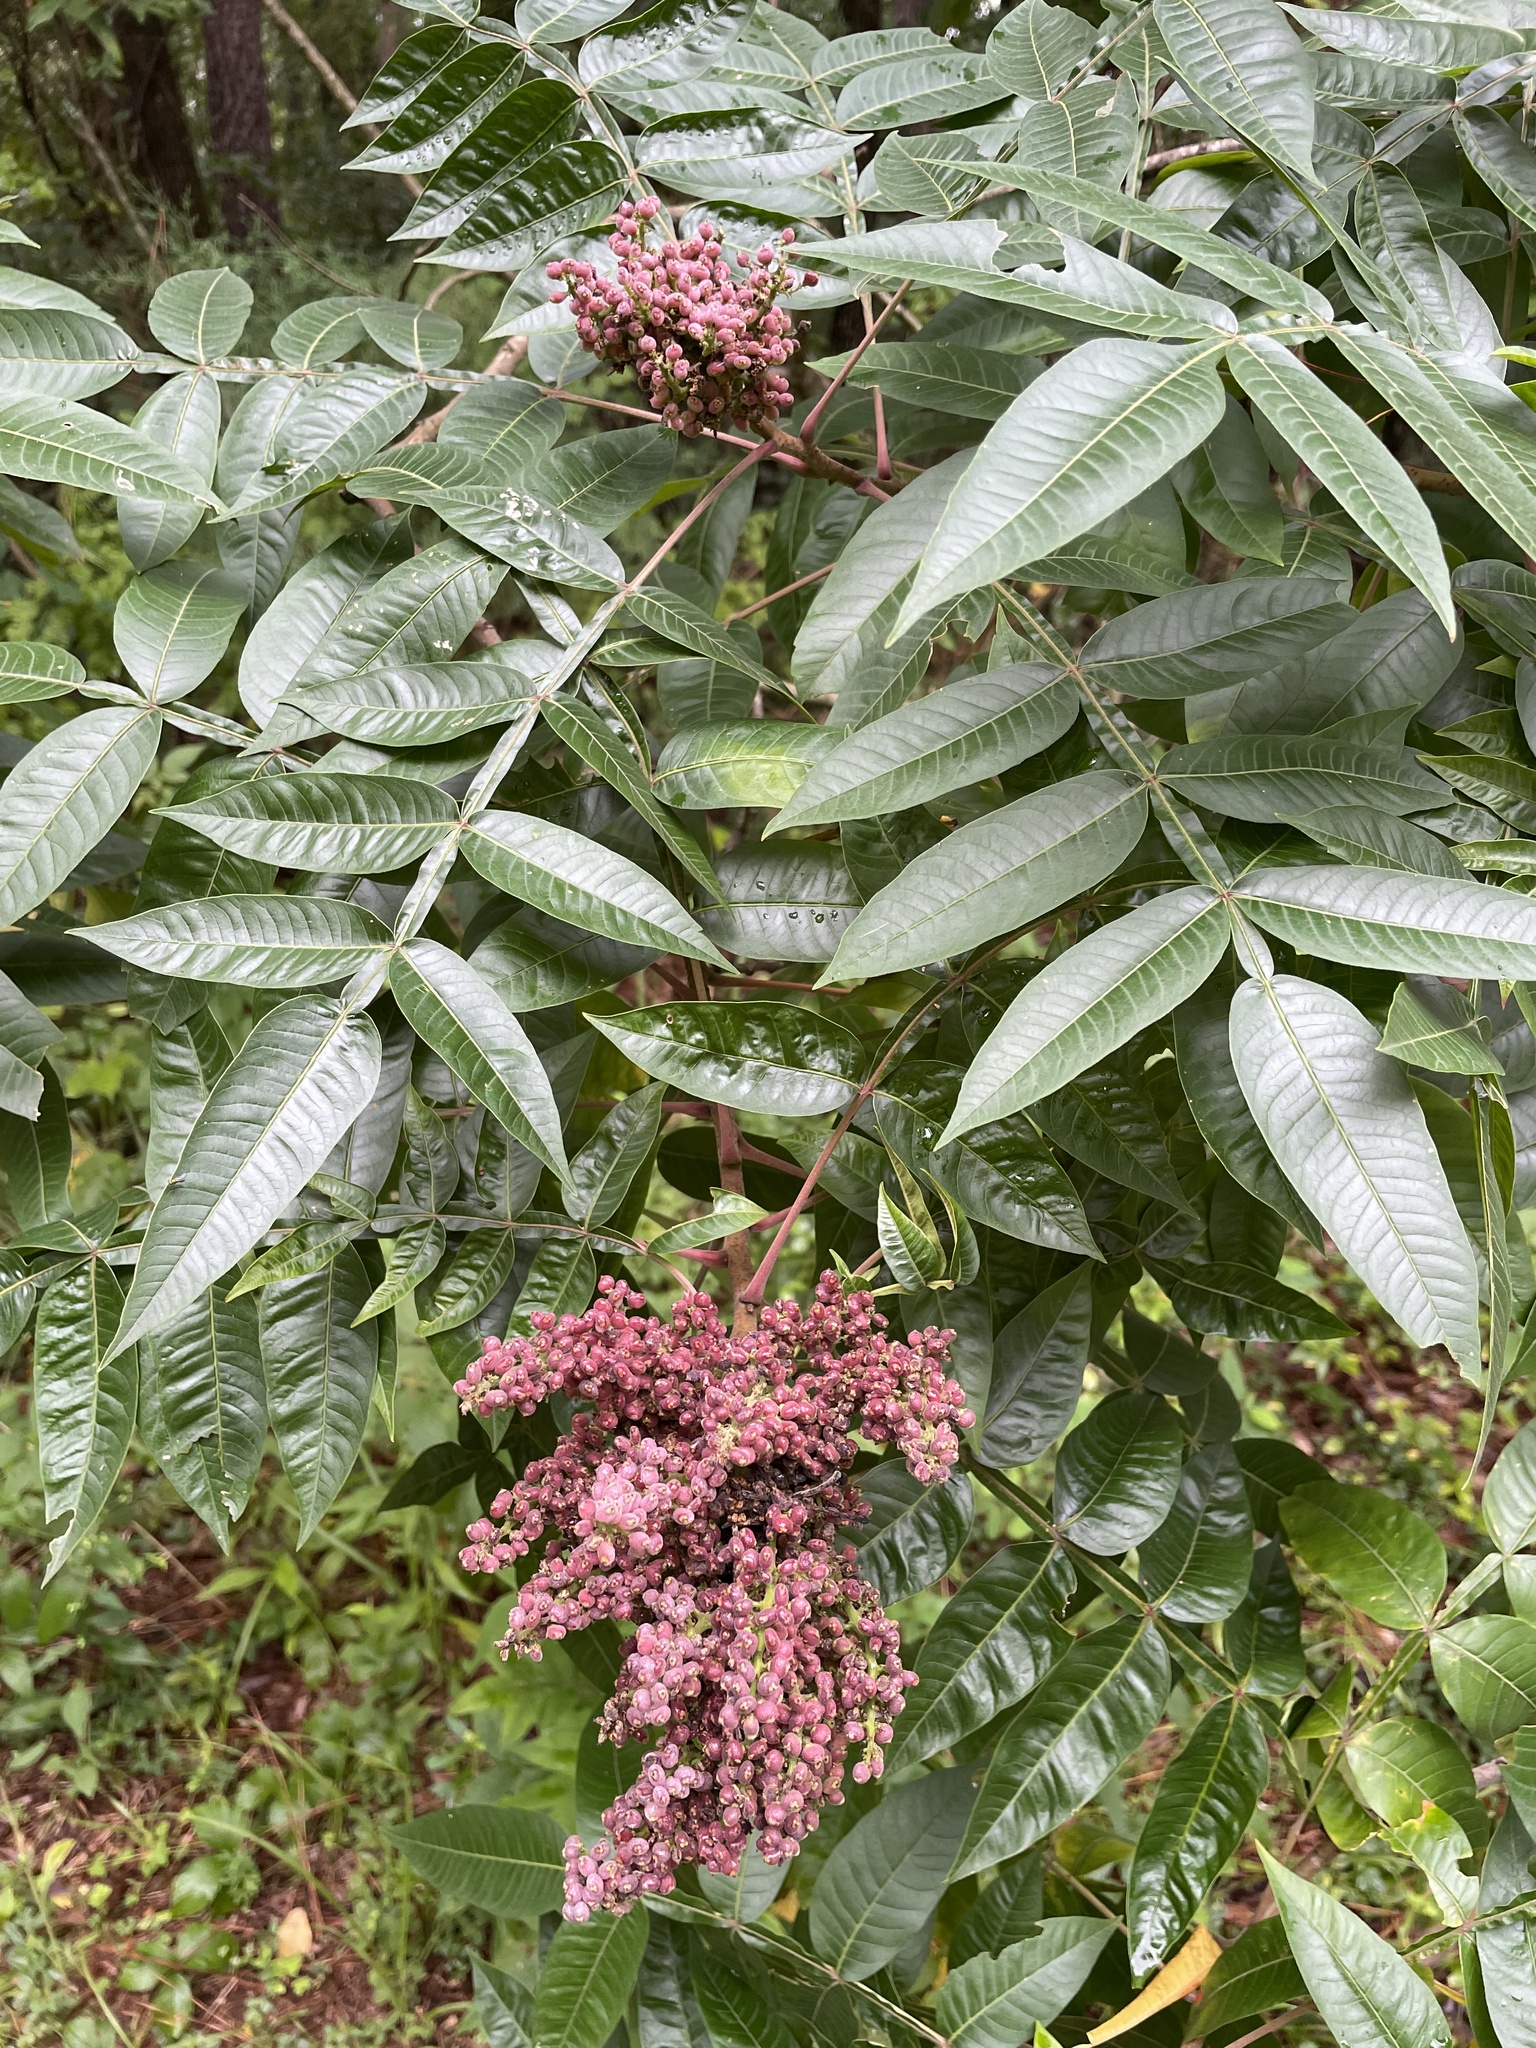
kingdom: Plantae
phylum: Tracheophyta
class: Magnoliopsida
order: Sapindales
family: Anacardiaceae
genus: Rhus
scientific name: Rhus copallina
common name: Shining sumac
